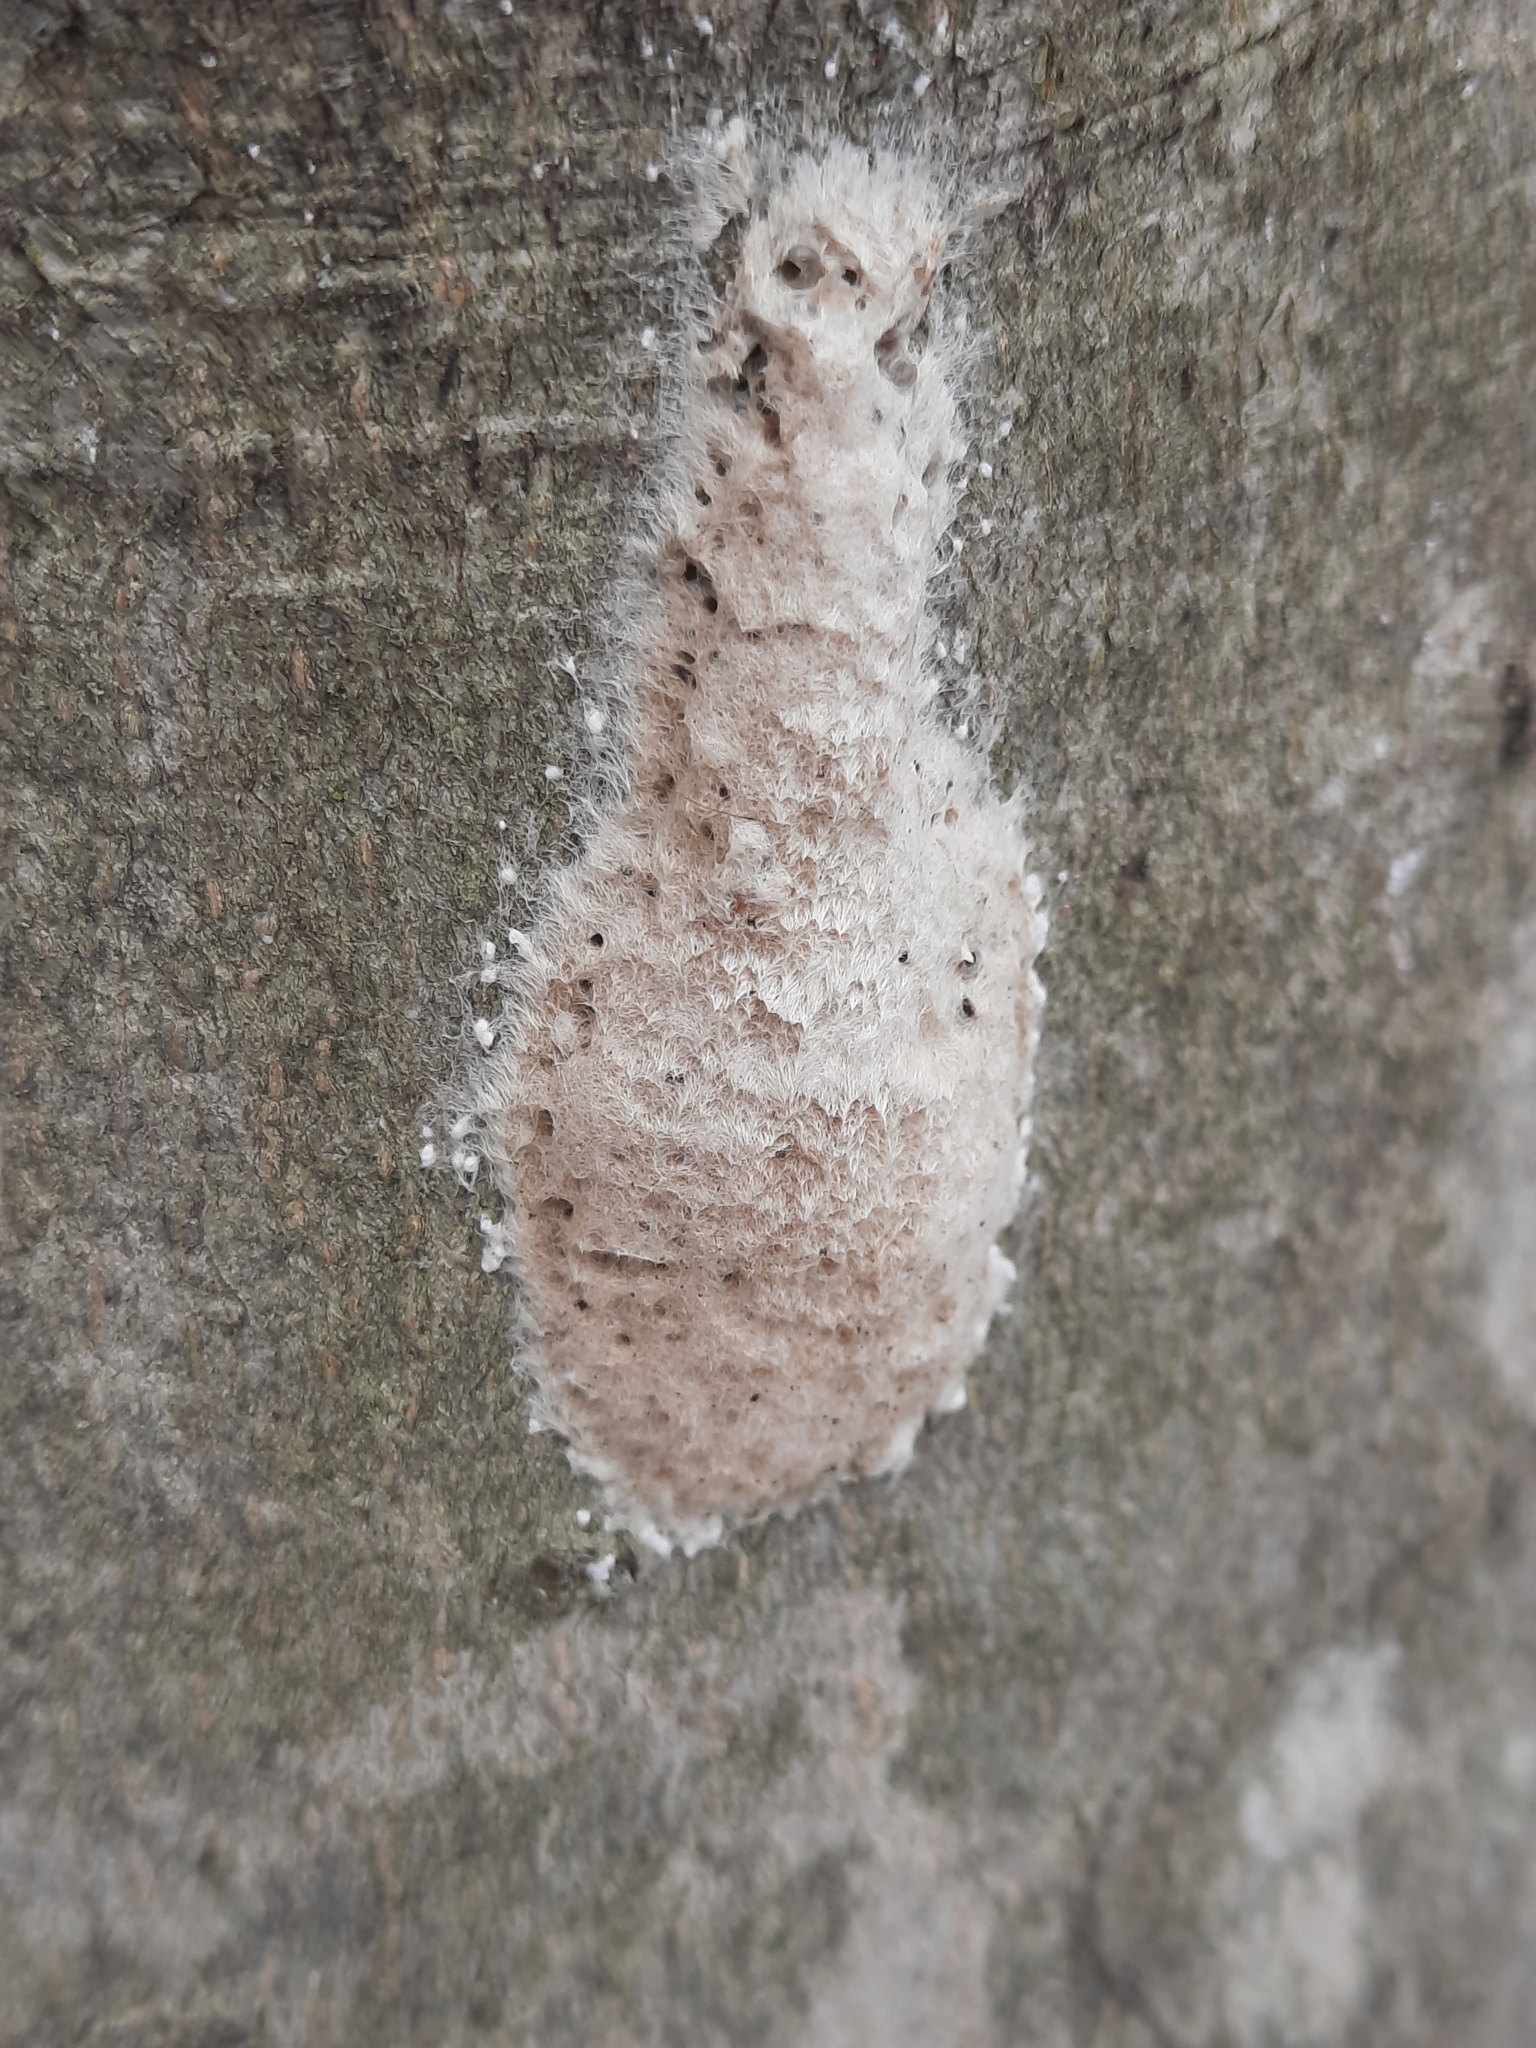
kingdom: Animalia
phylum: Arthropoda
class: Insecta
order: Lepidoptera
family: Erebidae
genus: Lymantria
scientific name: Lymantria dispar
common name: Gypsy moth
